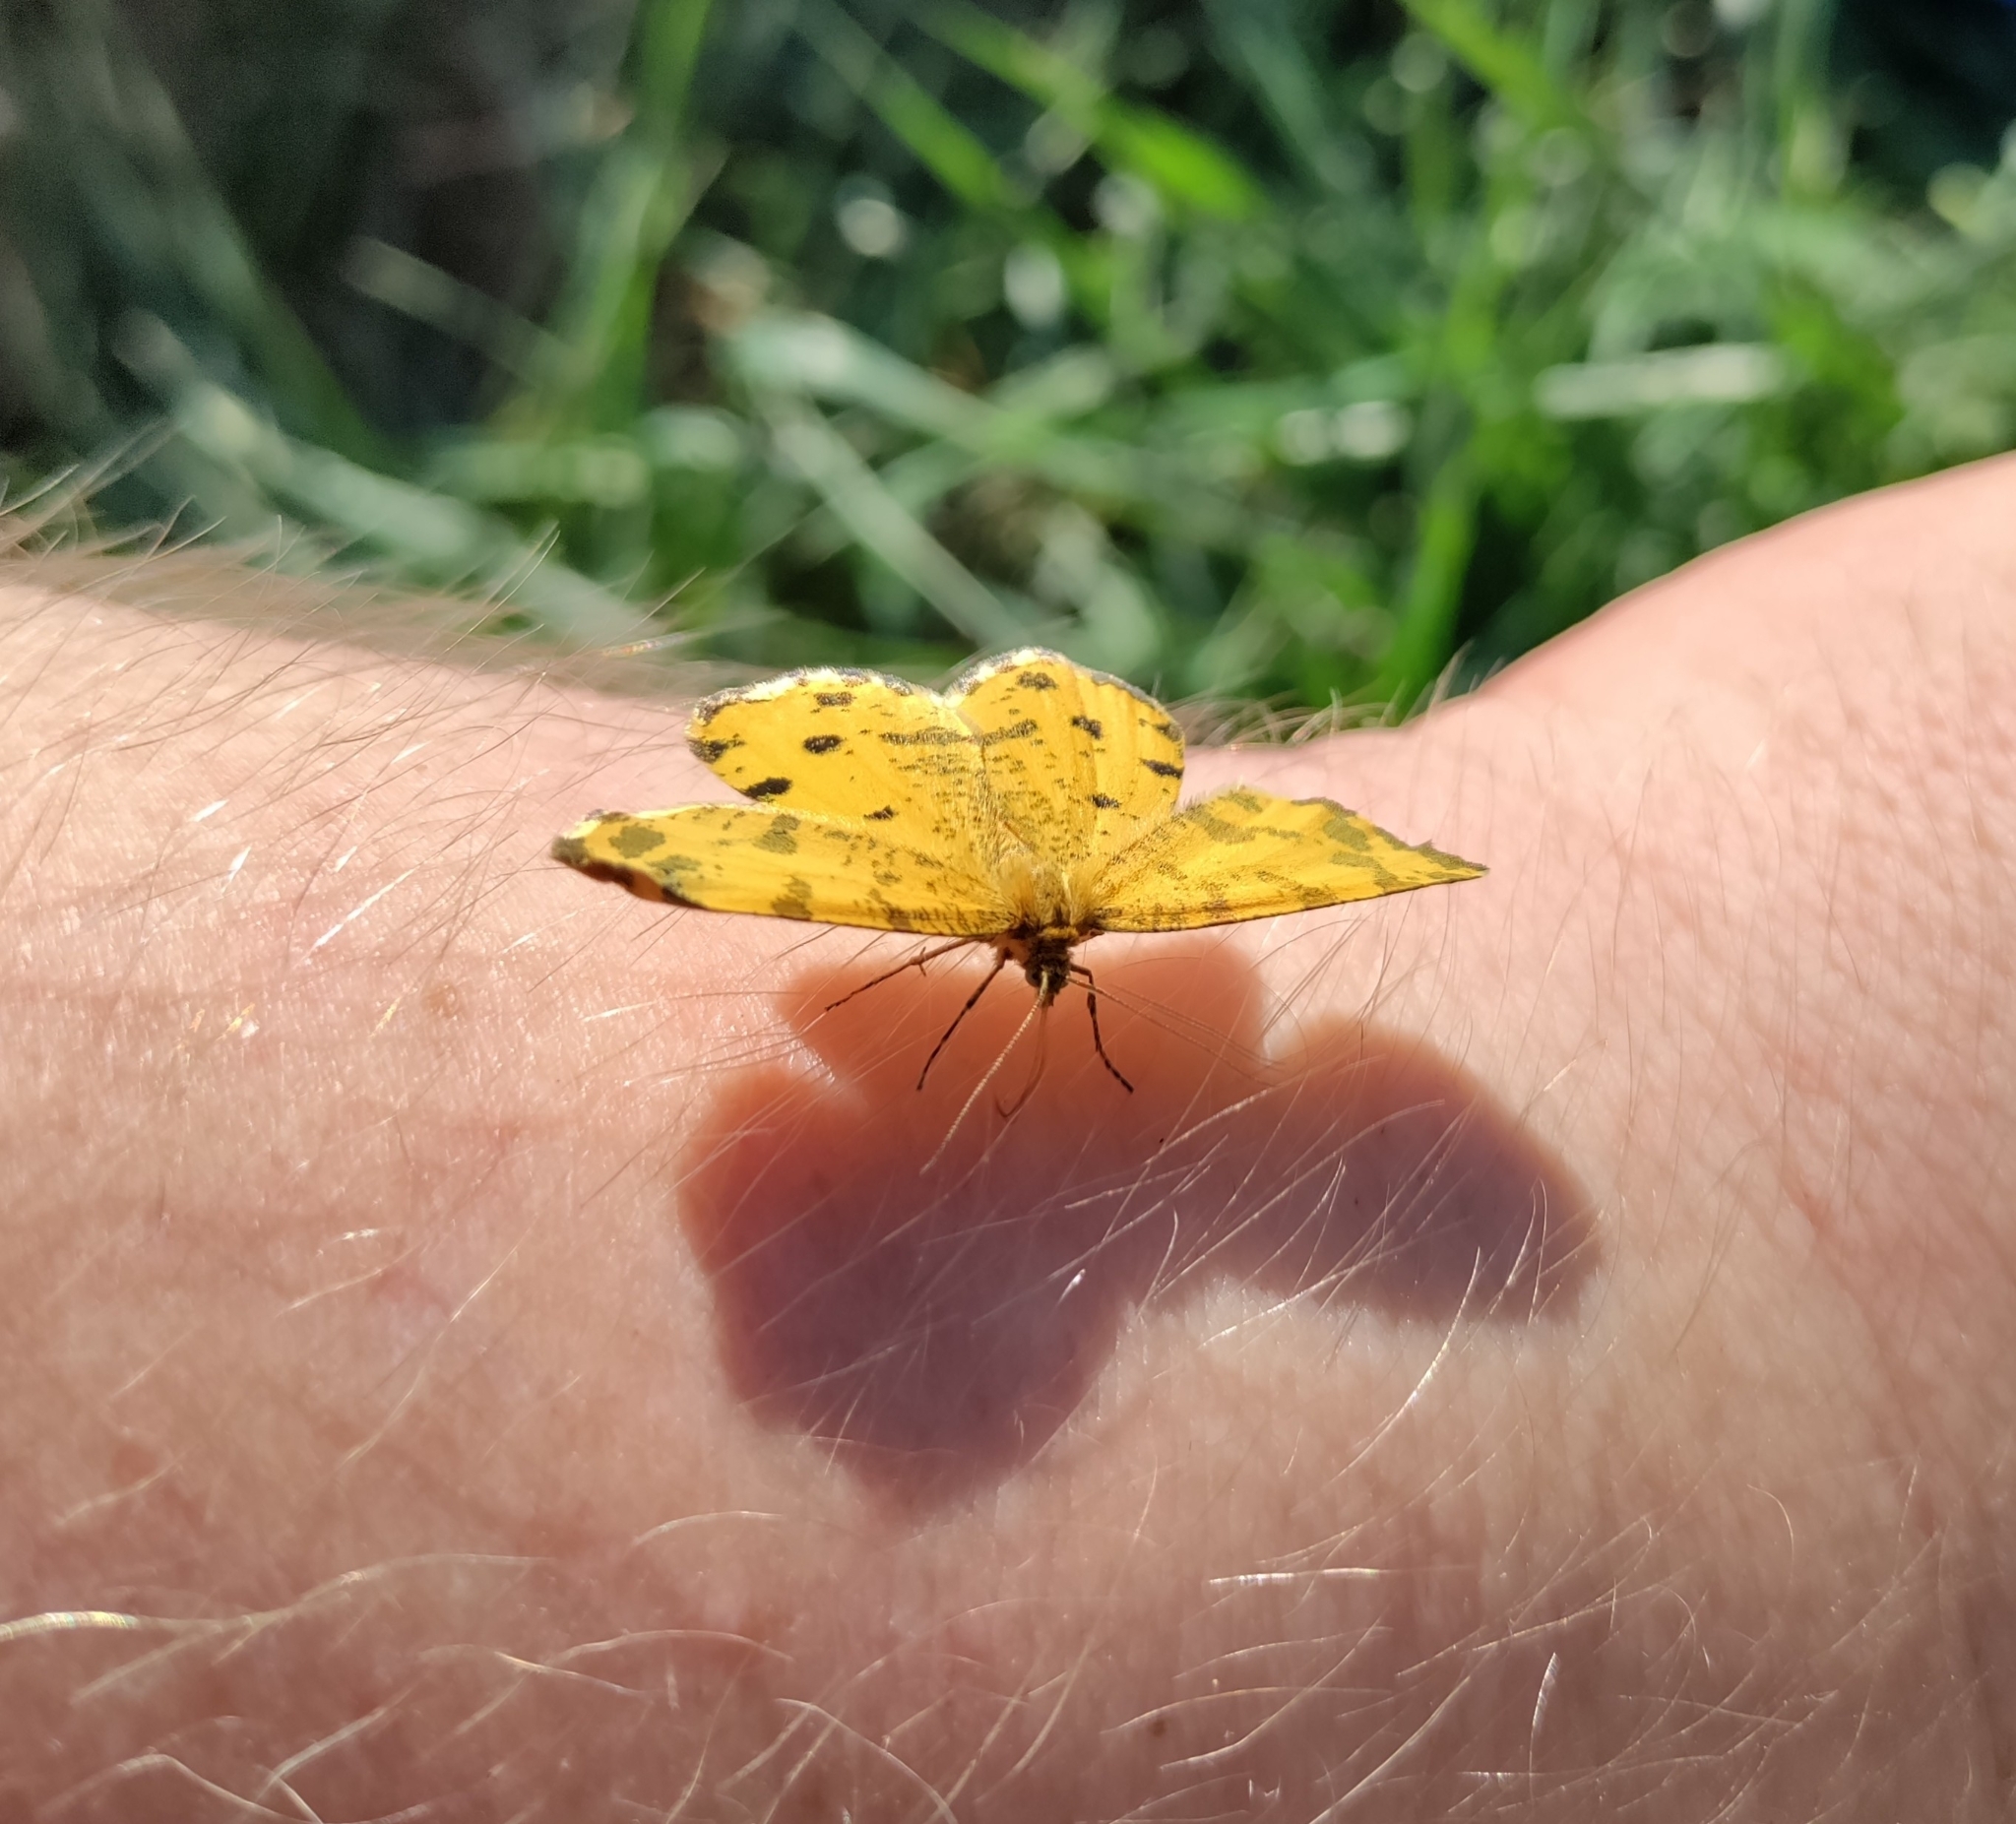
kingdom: Animalia
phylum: Arthropoda
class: Insecta
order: Lepidoptera
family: Geometridae
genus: Pseudopanthera
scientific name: Pseudopanthera macularia
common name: Speckled yellow
